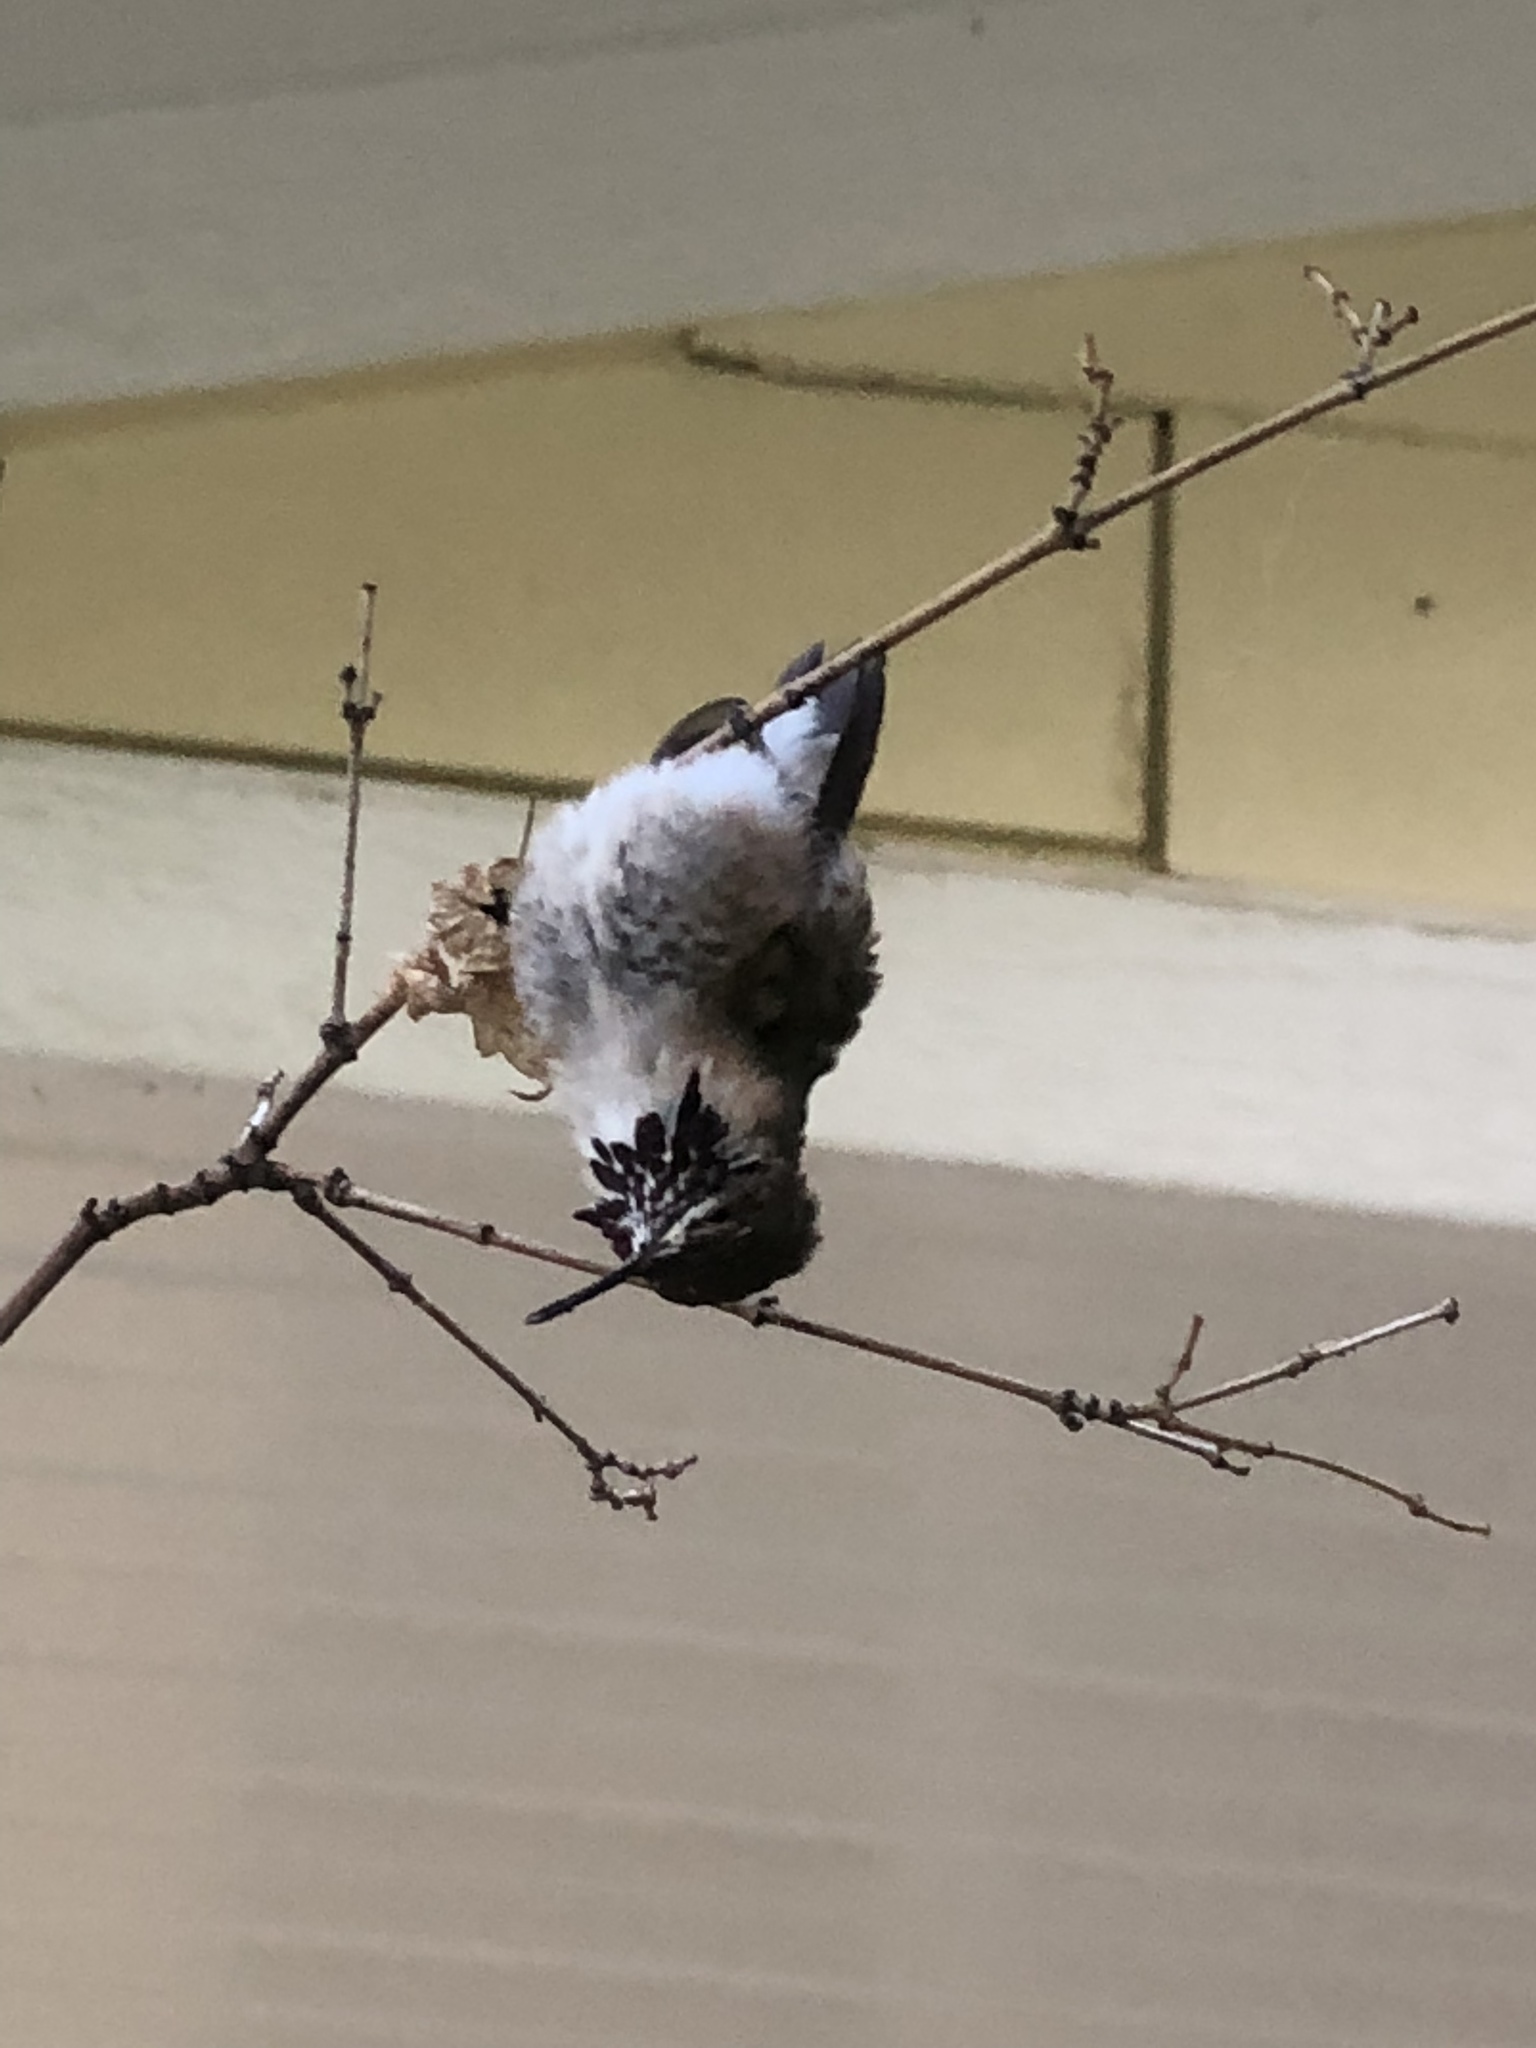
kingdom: Animalia
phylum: Chordata
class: Aves
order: Apodiformes
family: Trochilidae
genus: Selasphorus
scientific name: Selasphorus calliope
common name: Calliope hummingbird
